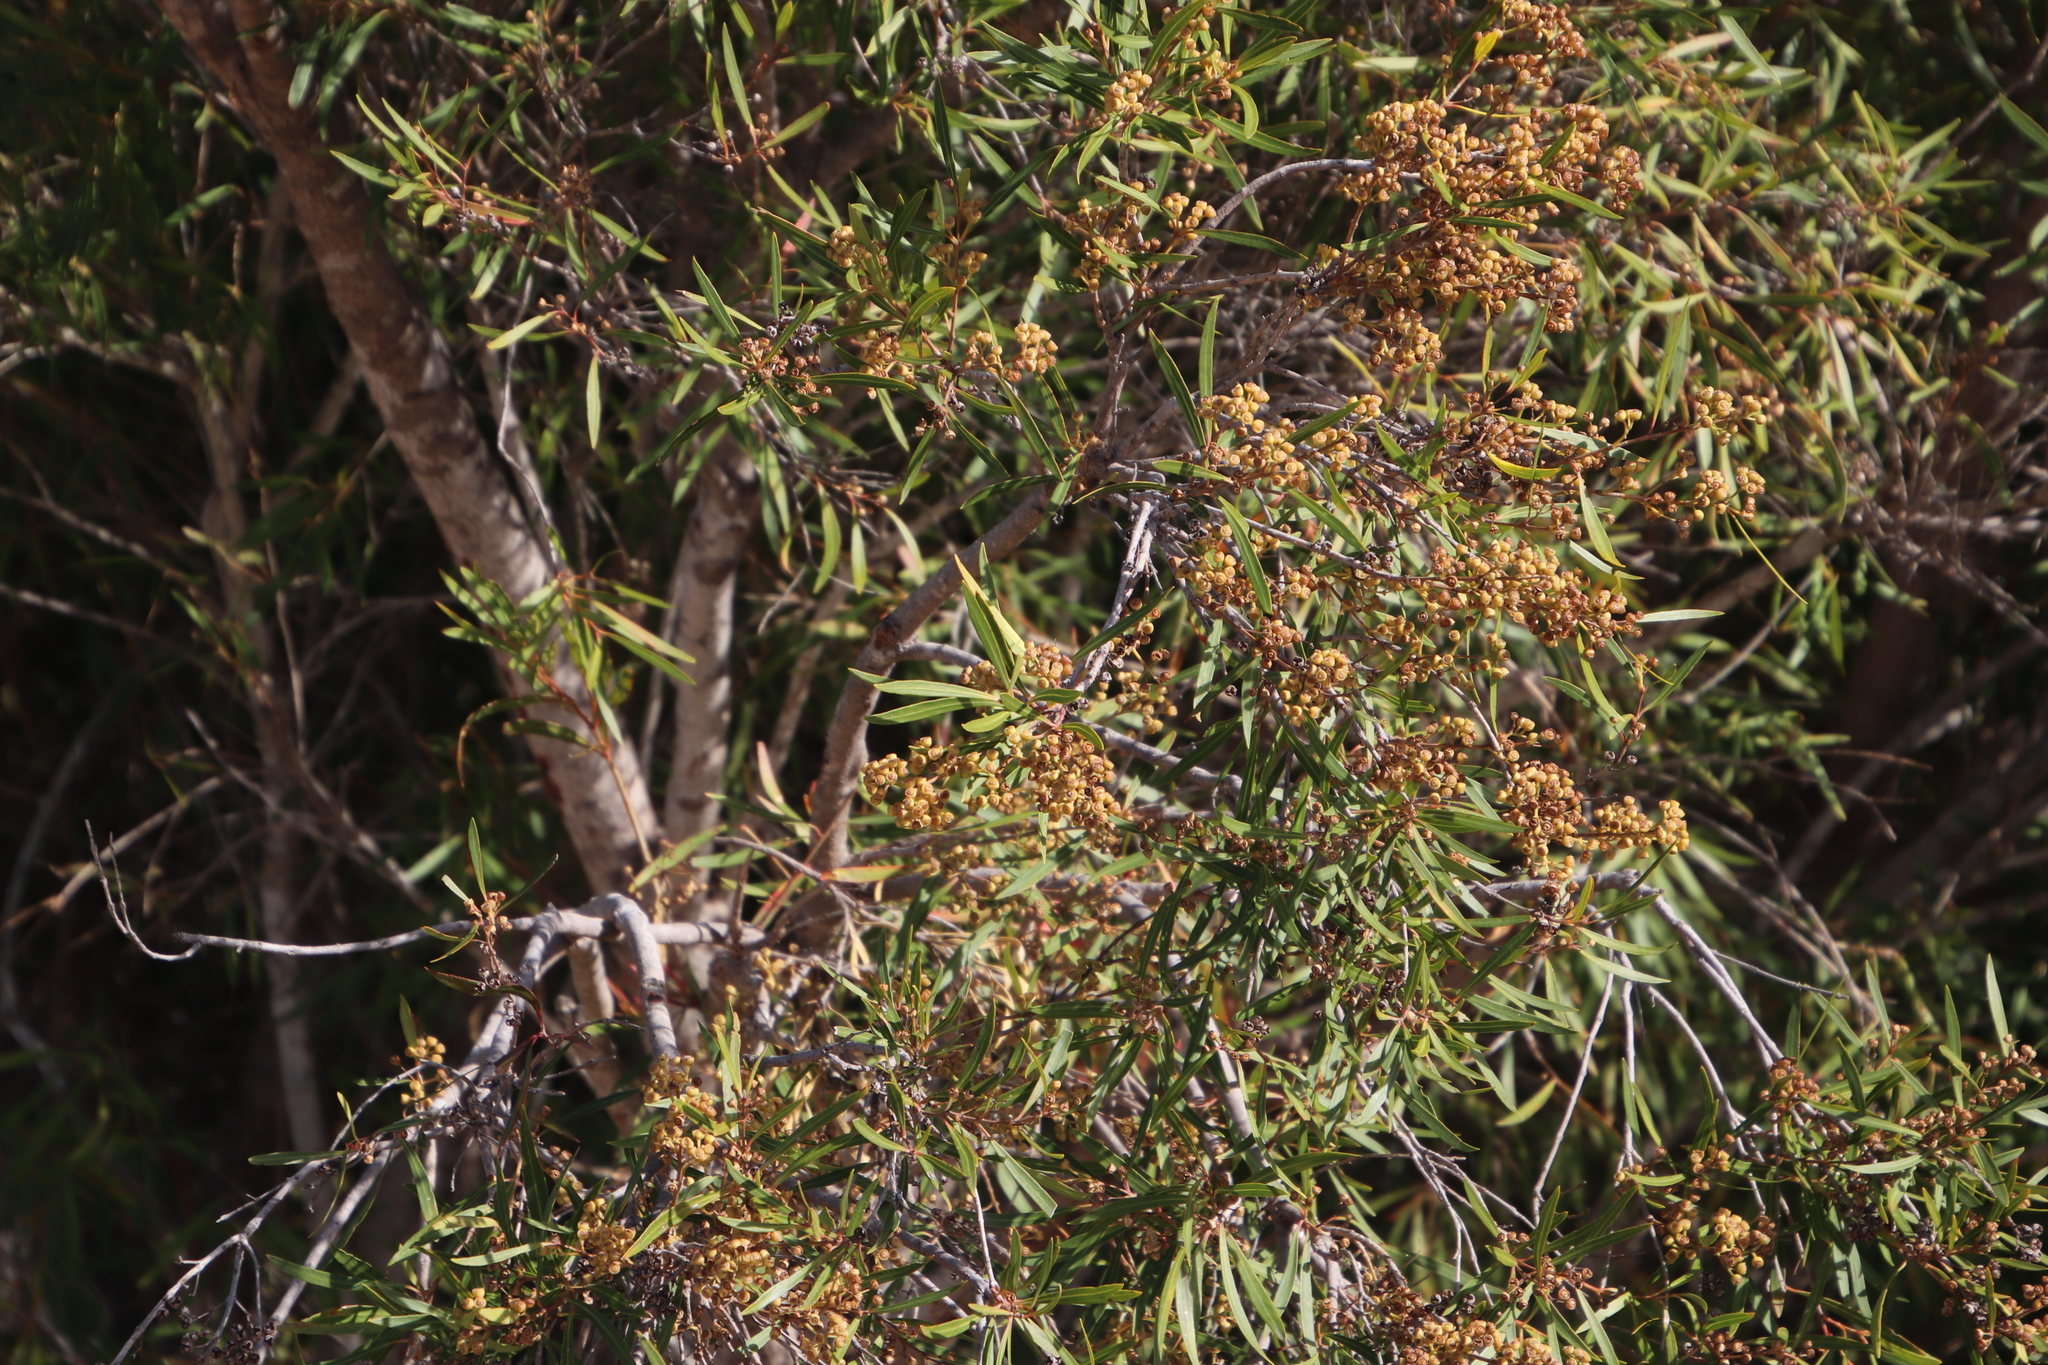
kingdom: Plantae
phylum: Tracheophyta
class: Magnoliopsida
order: Myrtales
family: Myrtaceae
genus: Callistemon
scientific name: Callistemon lanceolatus
